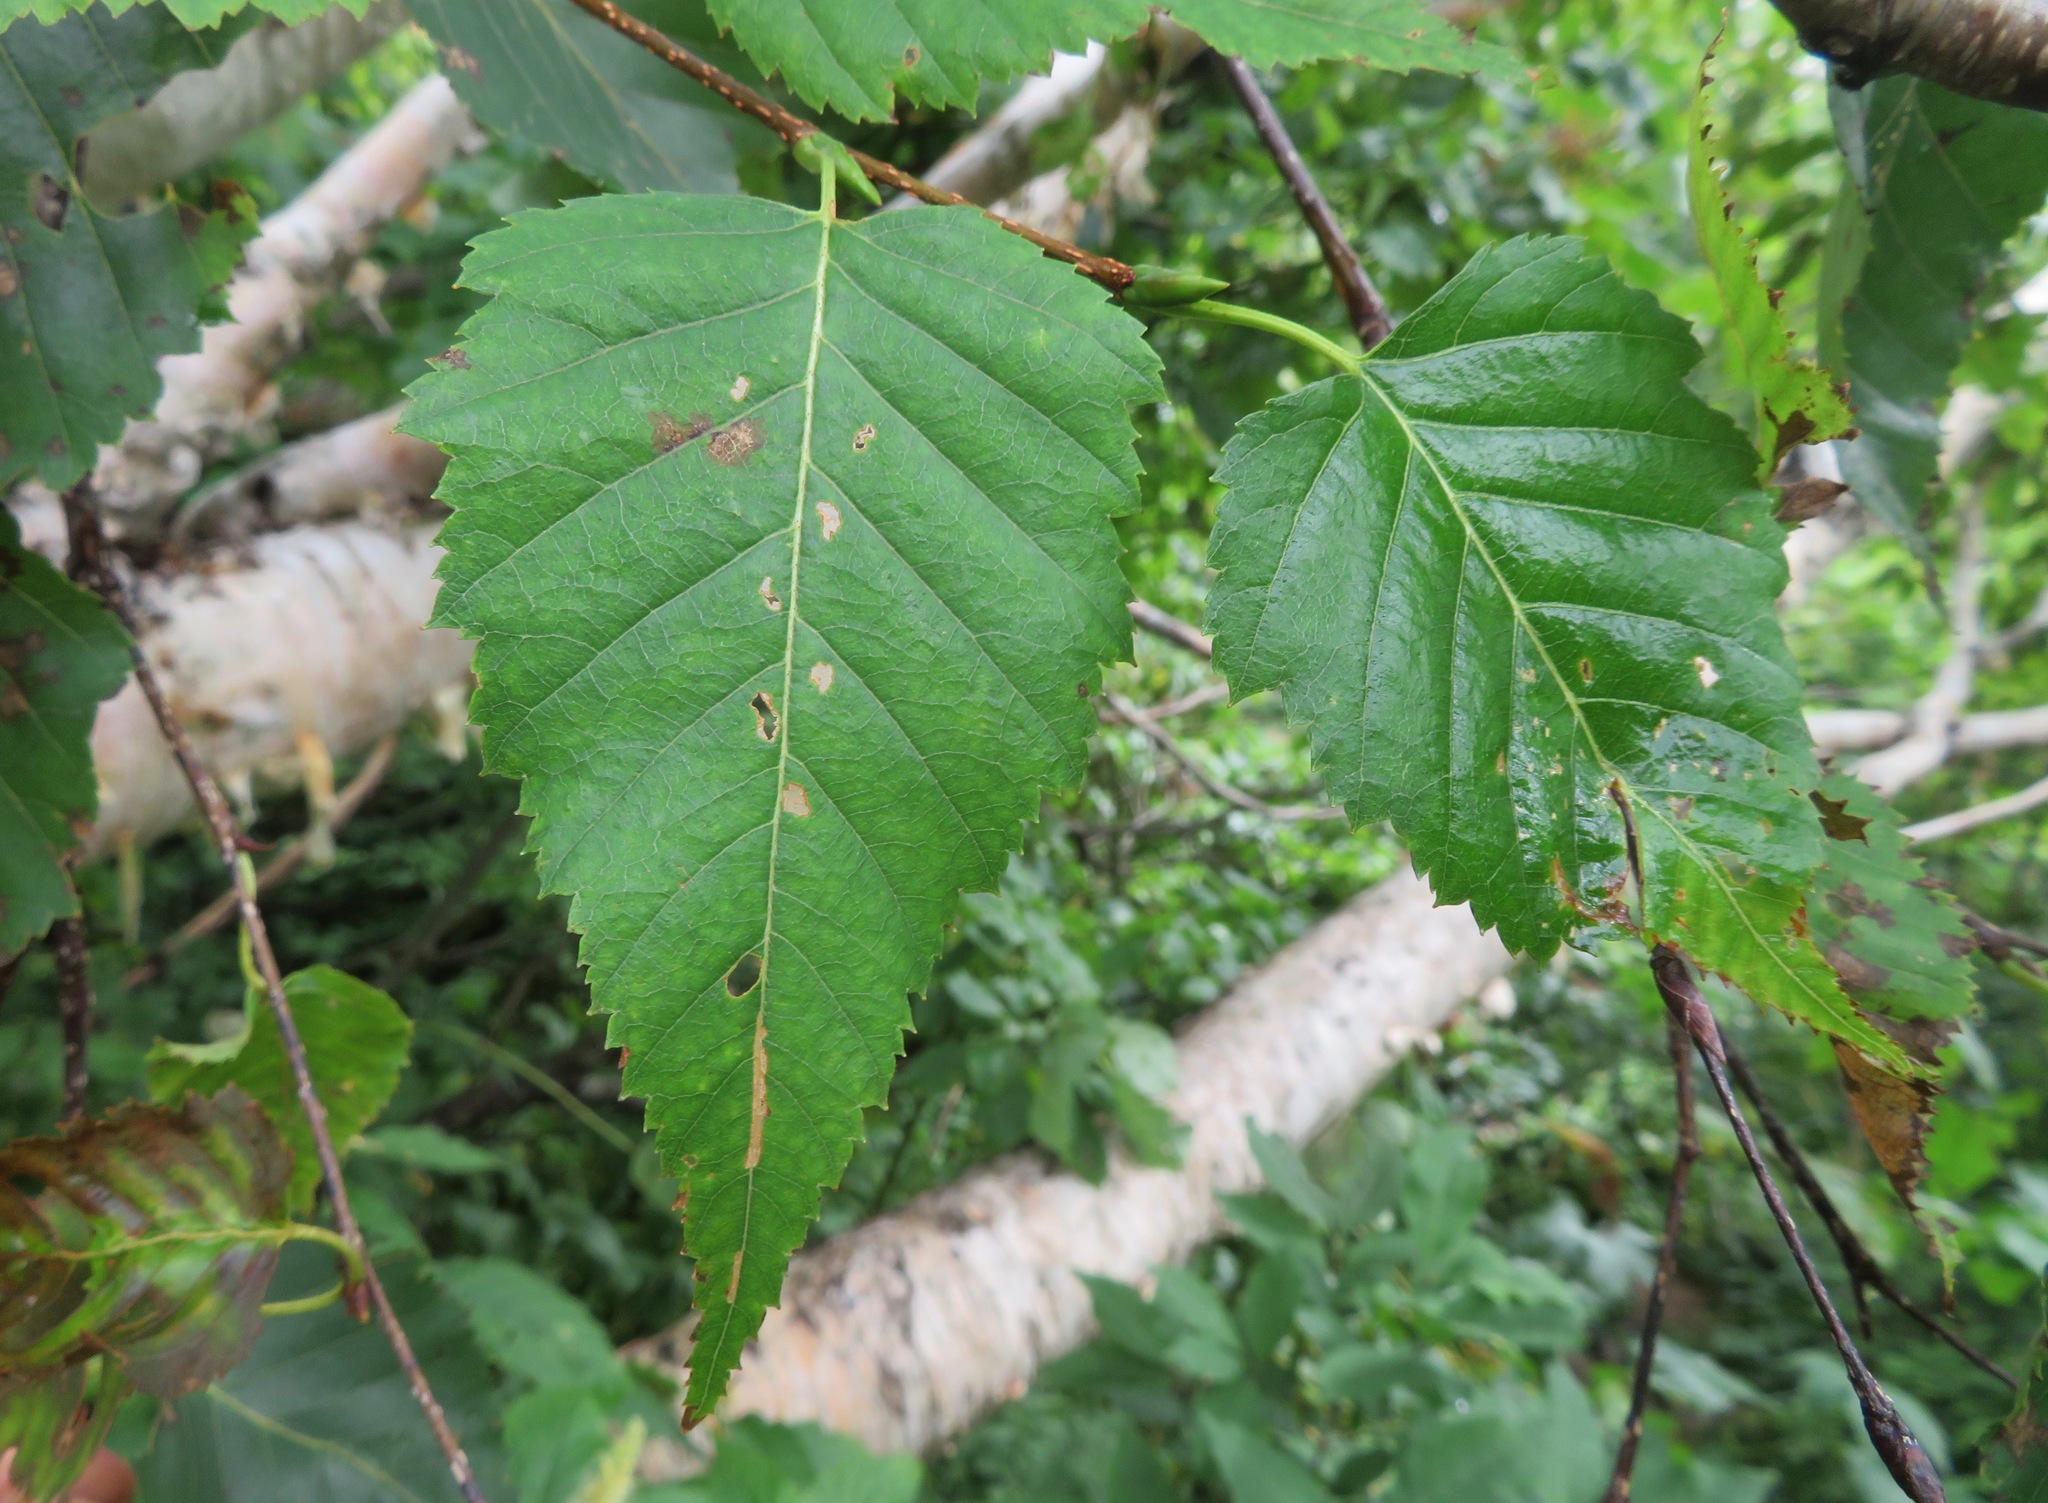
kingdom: Plantae
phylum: Tracheophyta
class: Magnoliopsida
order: Fagales
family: Betulaceae
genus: Betula
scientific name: Betula ermanii
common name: Erman's birch
